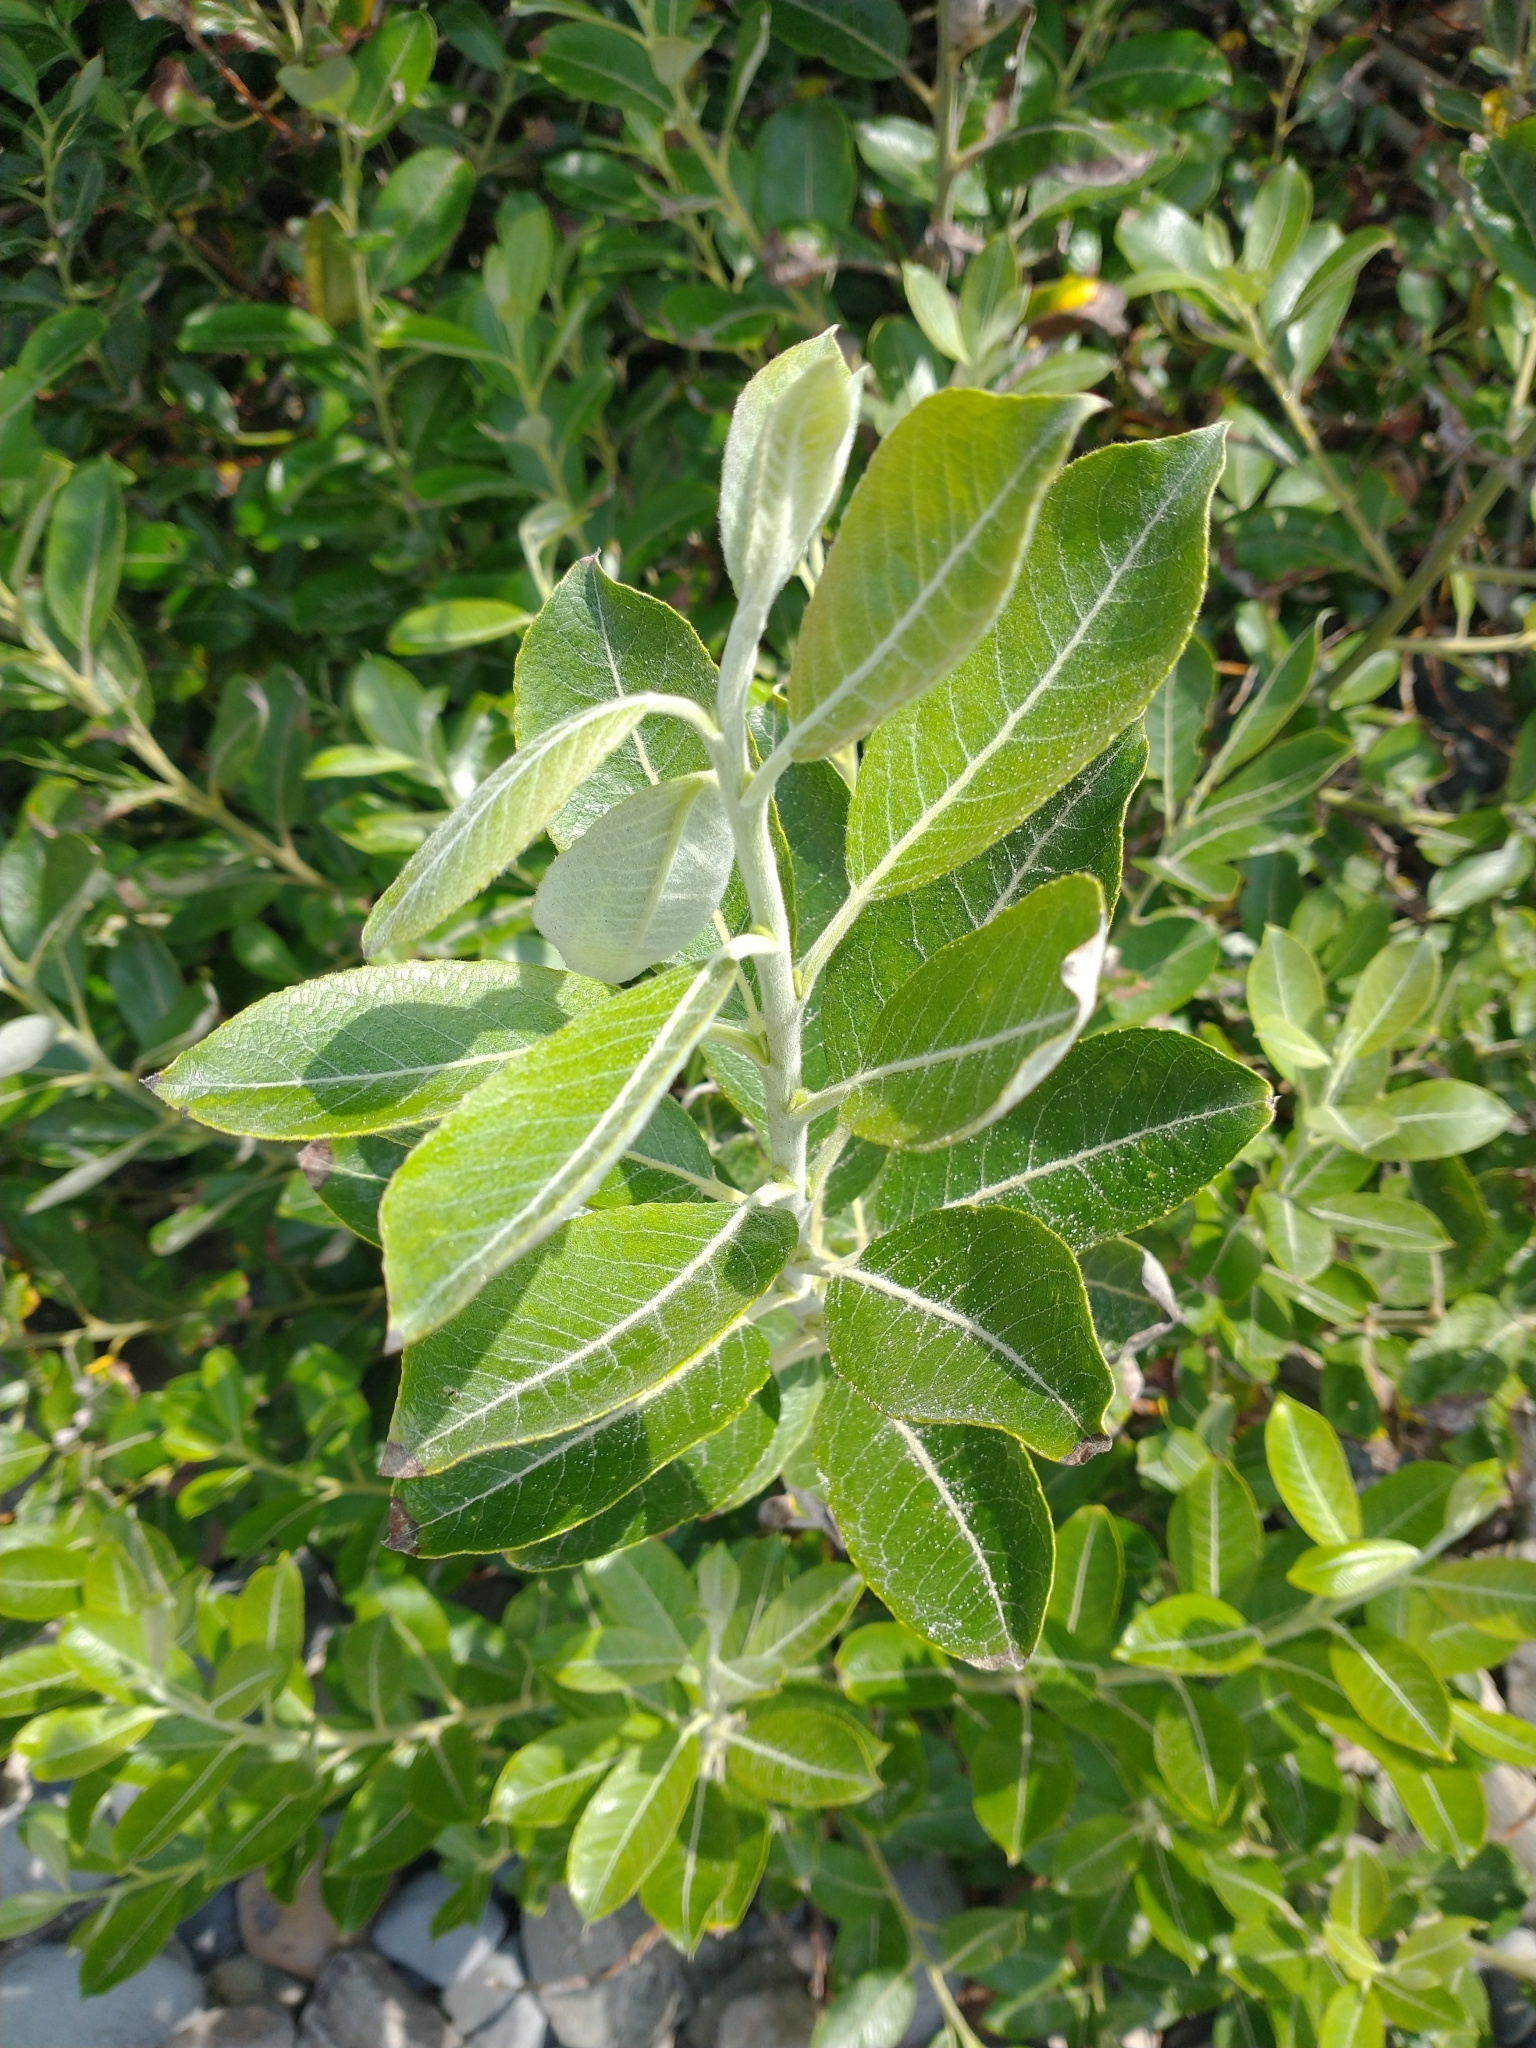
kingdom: Plantae
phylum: Tracheophyta
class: Magnoliopsida
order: Malpighiales
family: Salicaceae
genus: Salix
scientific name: Salix hookeriana
